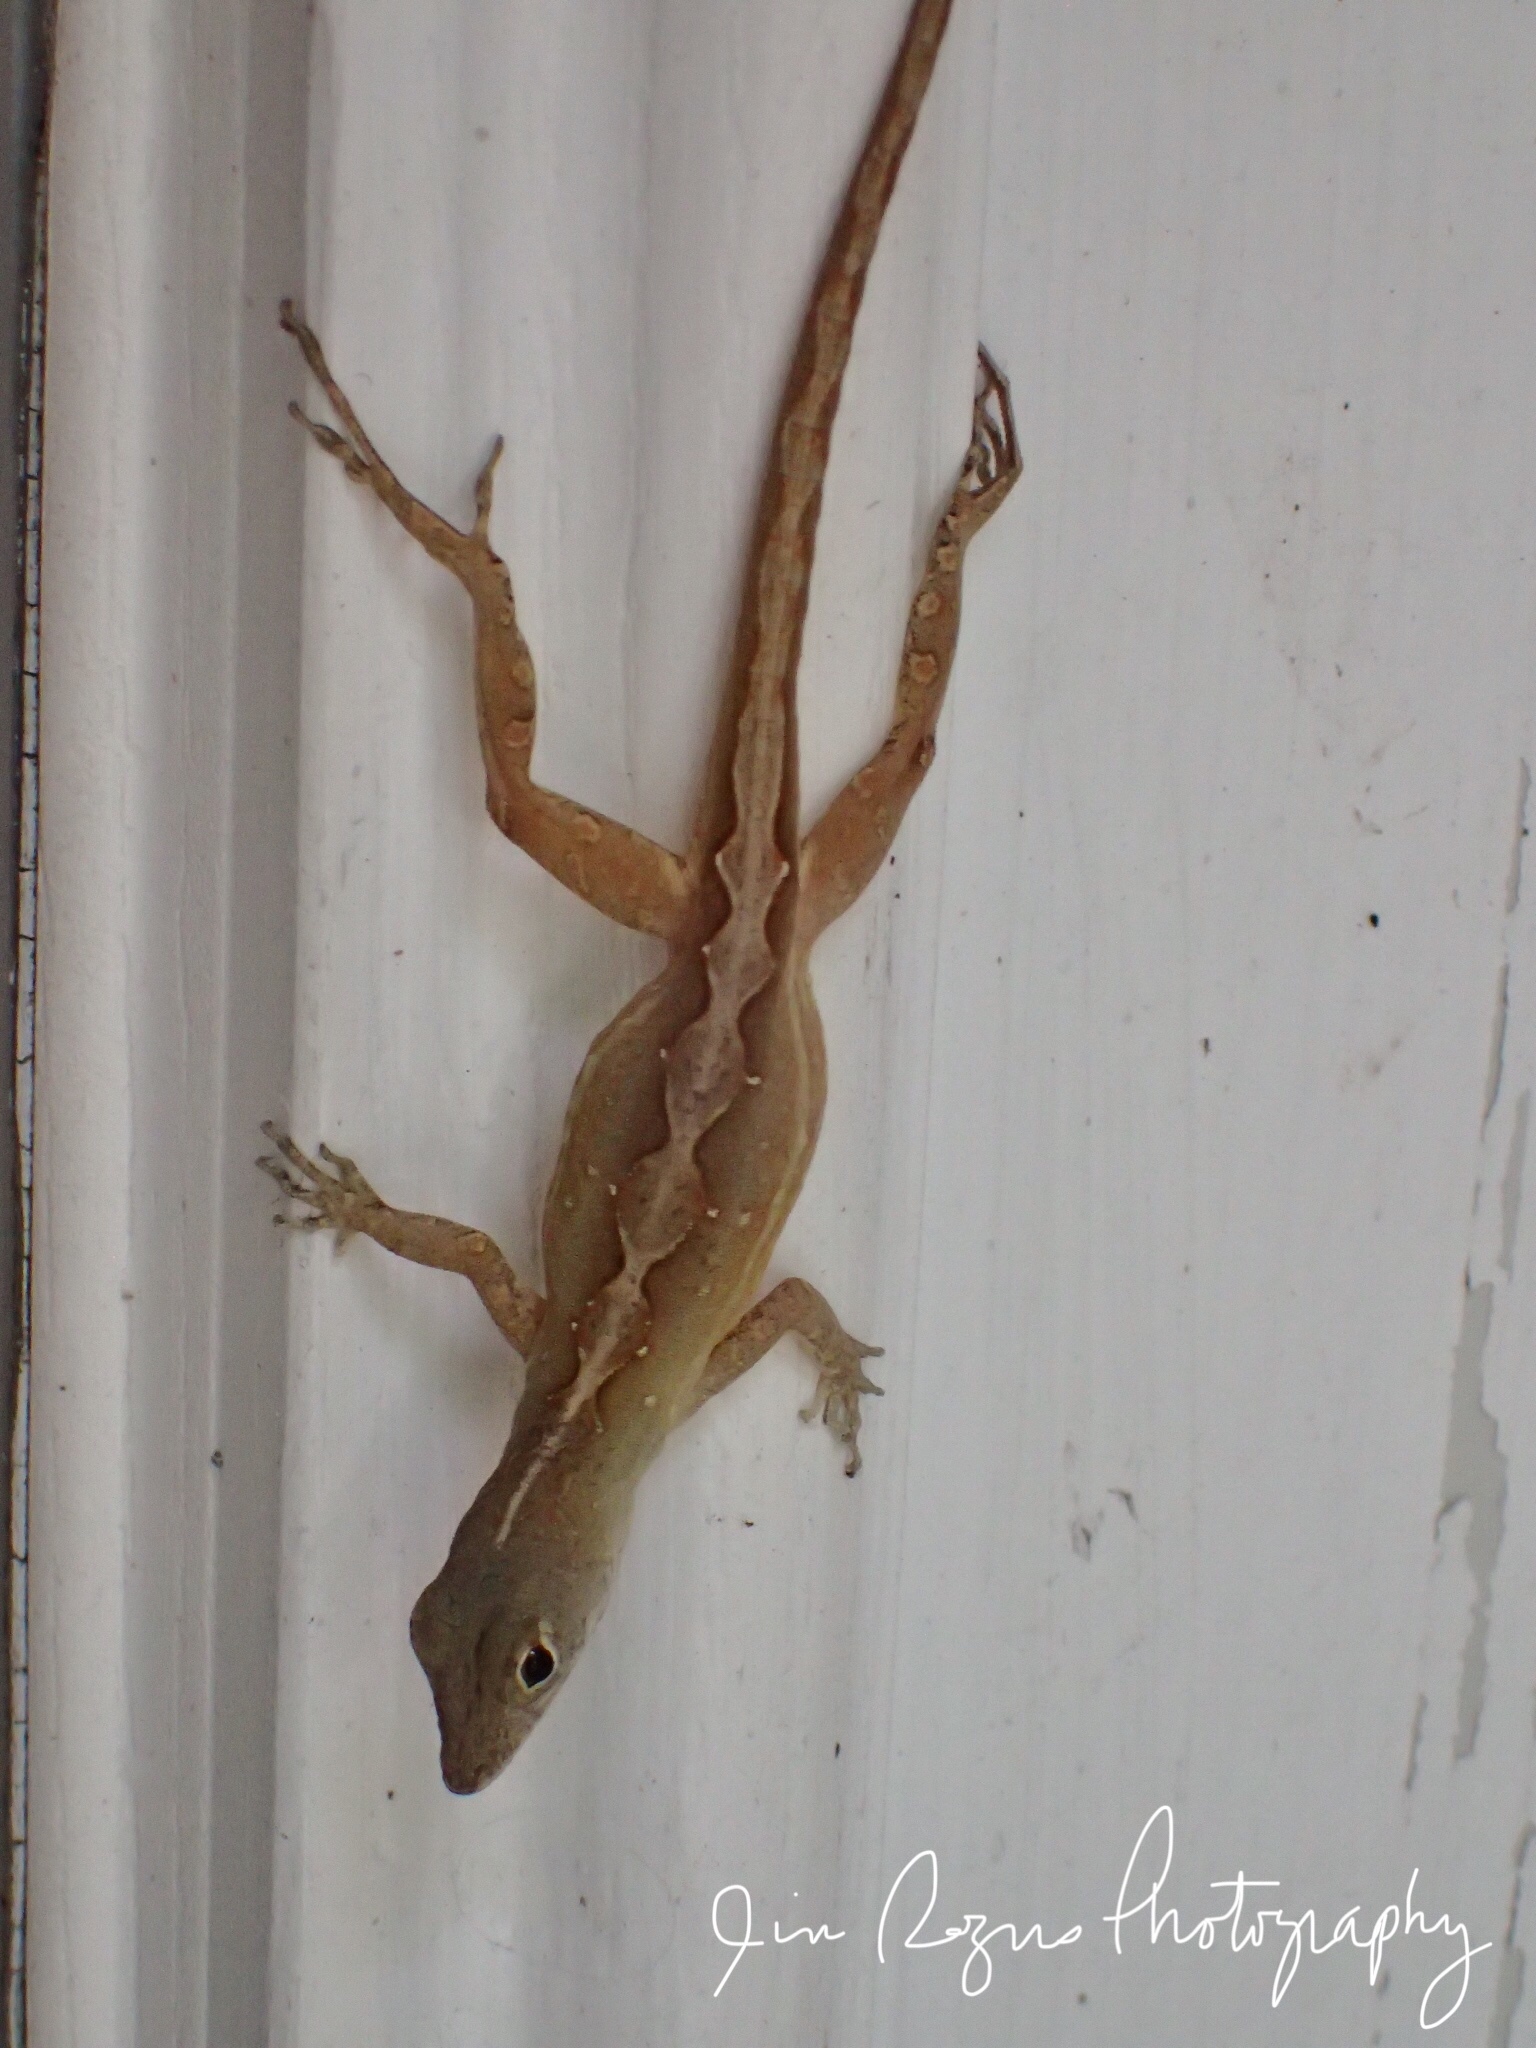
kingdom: Animalia
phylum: Chordata
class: Squamata
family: Dactyloidae
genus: Anolis
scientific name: Anolis sagrei
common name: Brown anole
